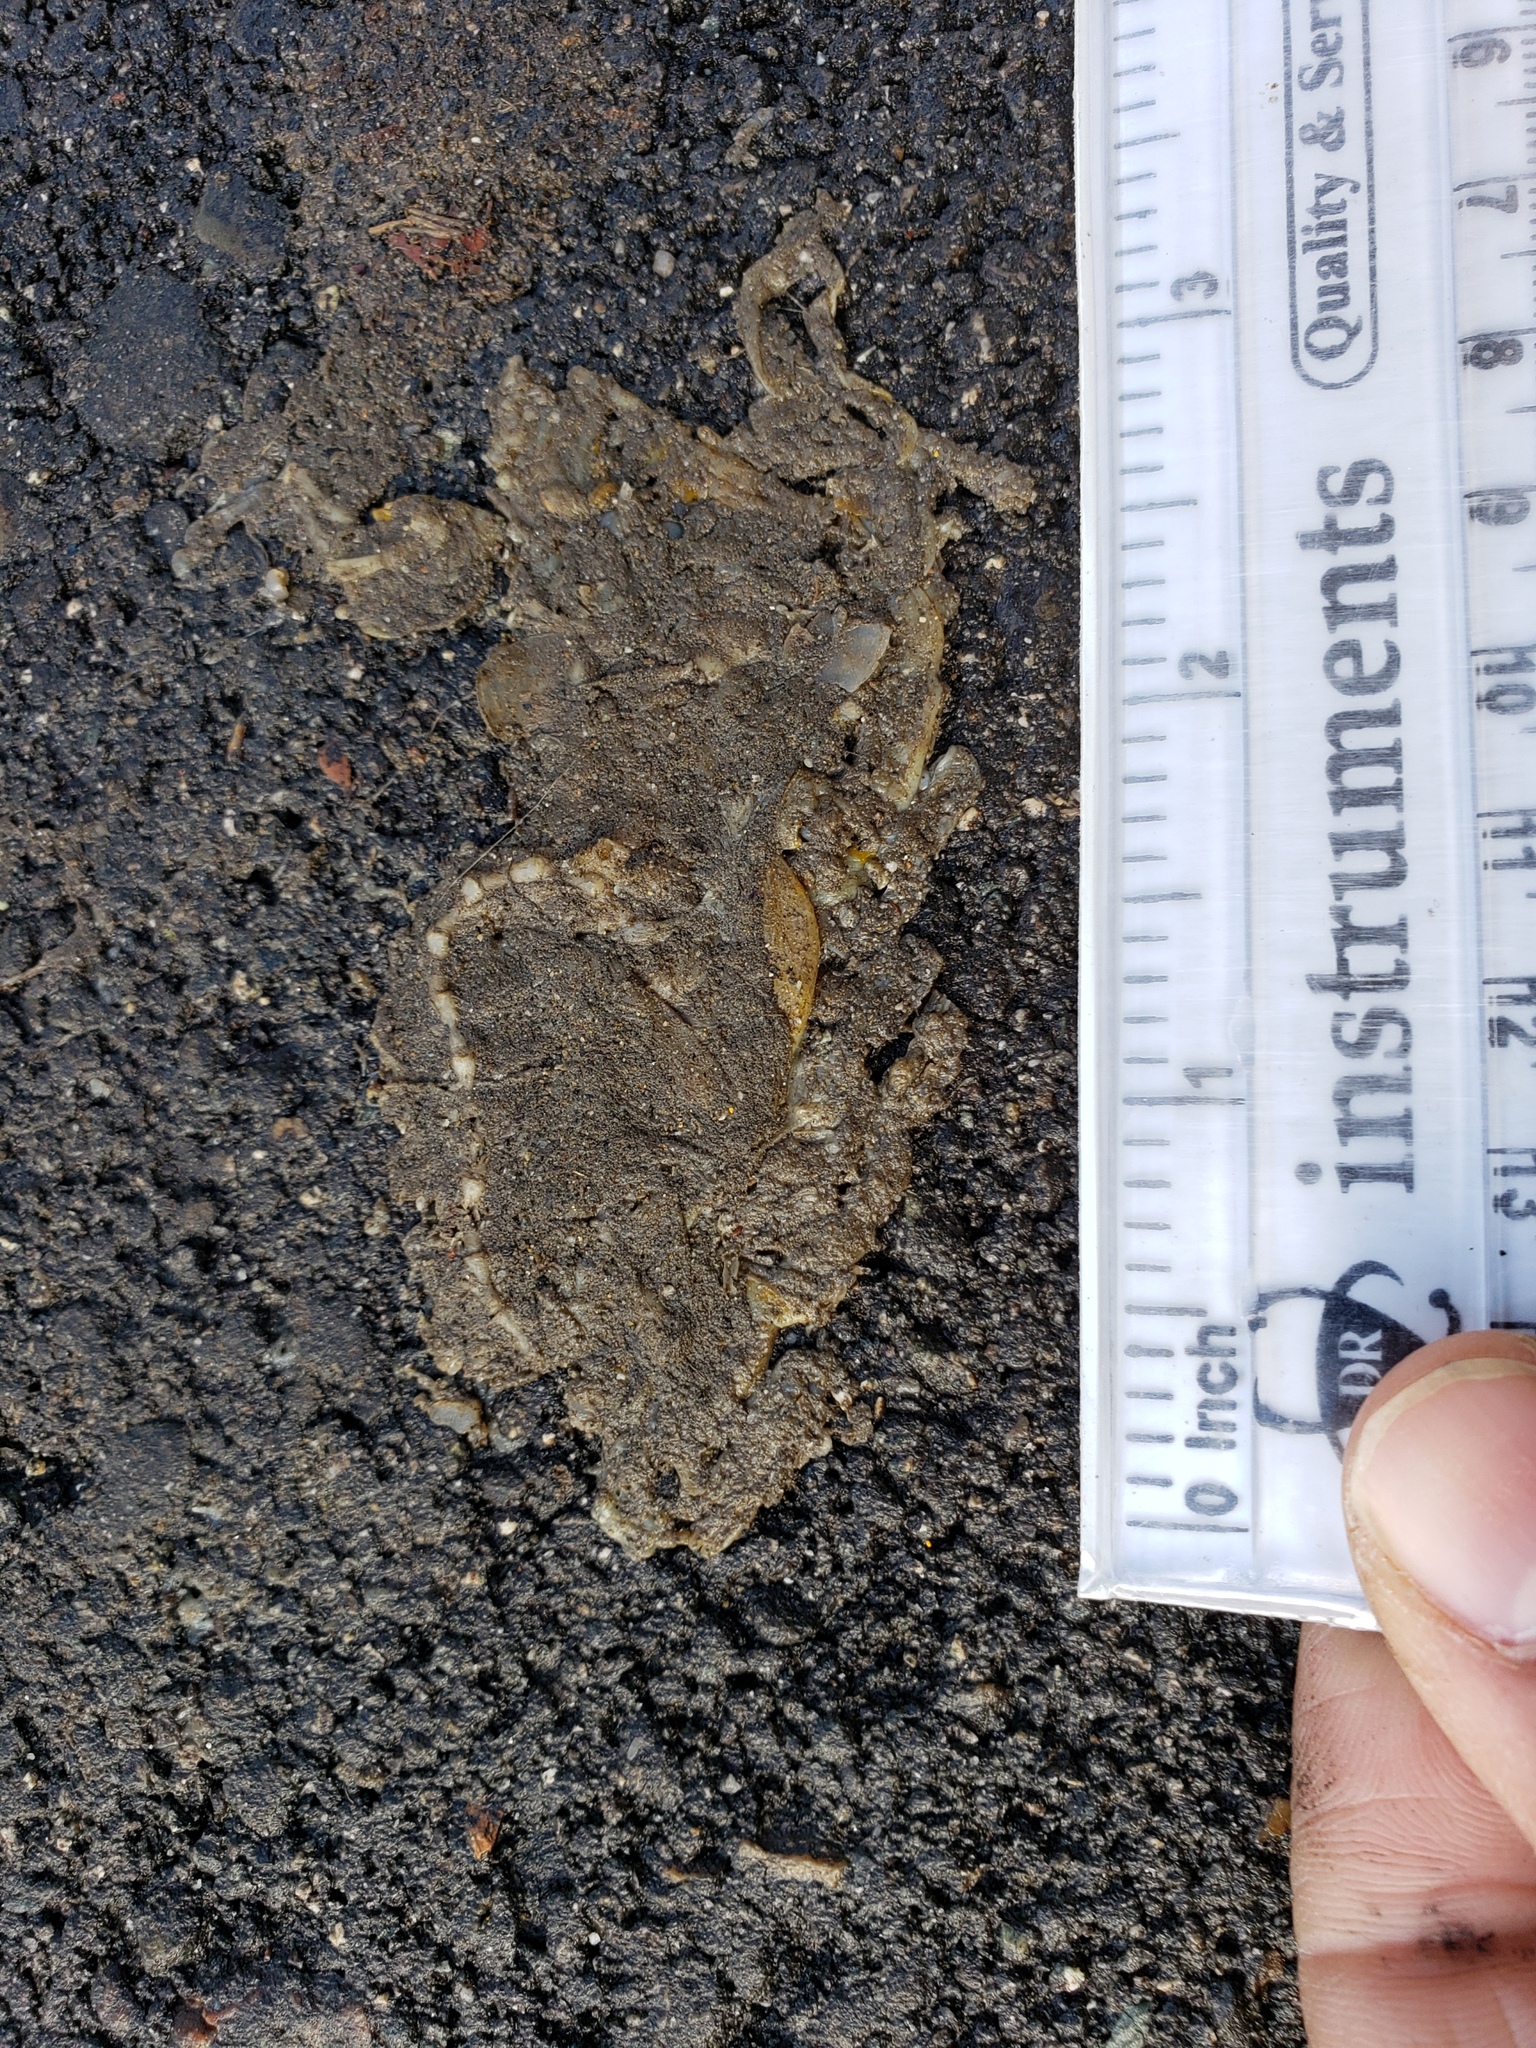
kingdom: Animalia
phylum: Chordata
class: Amphibia
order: Caudata
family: Salamandridae
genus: Taricha
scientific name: Taricha
